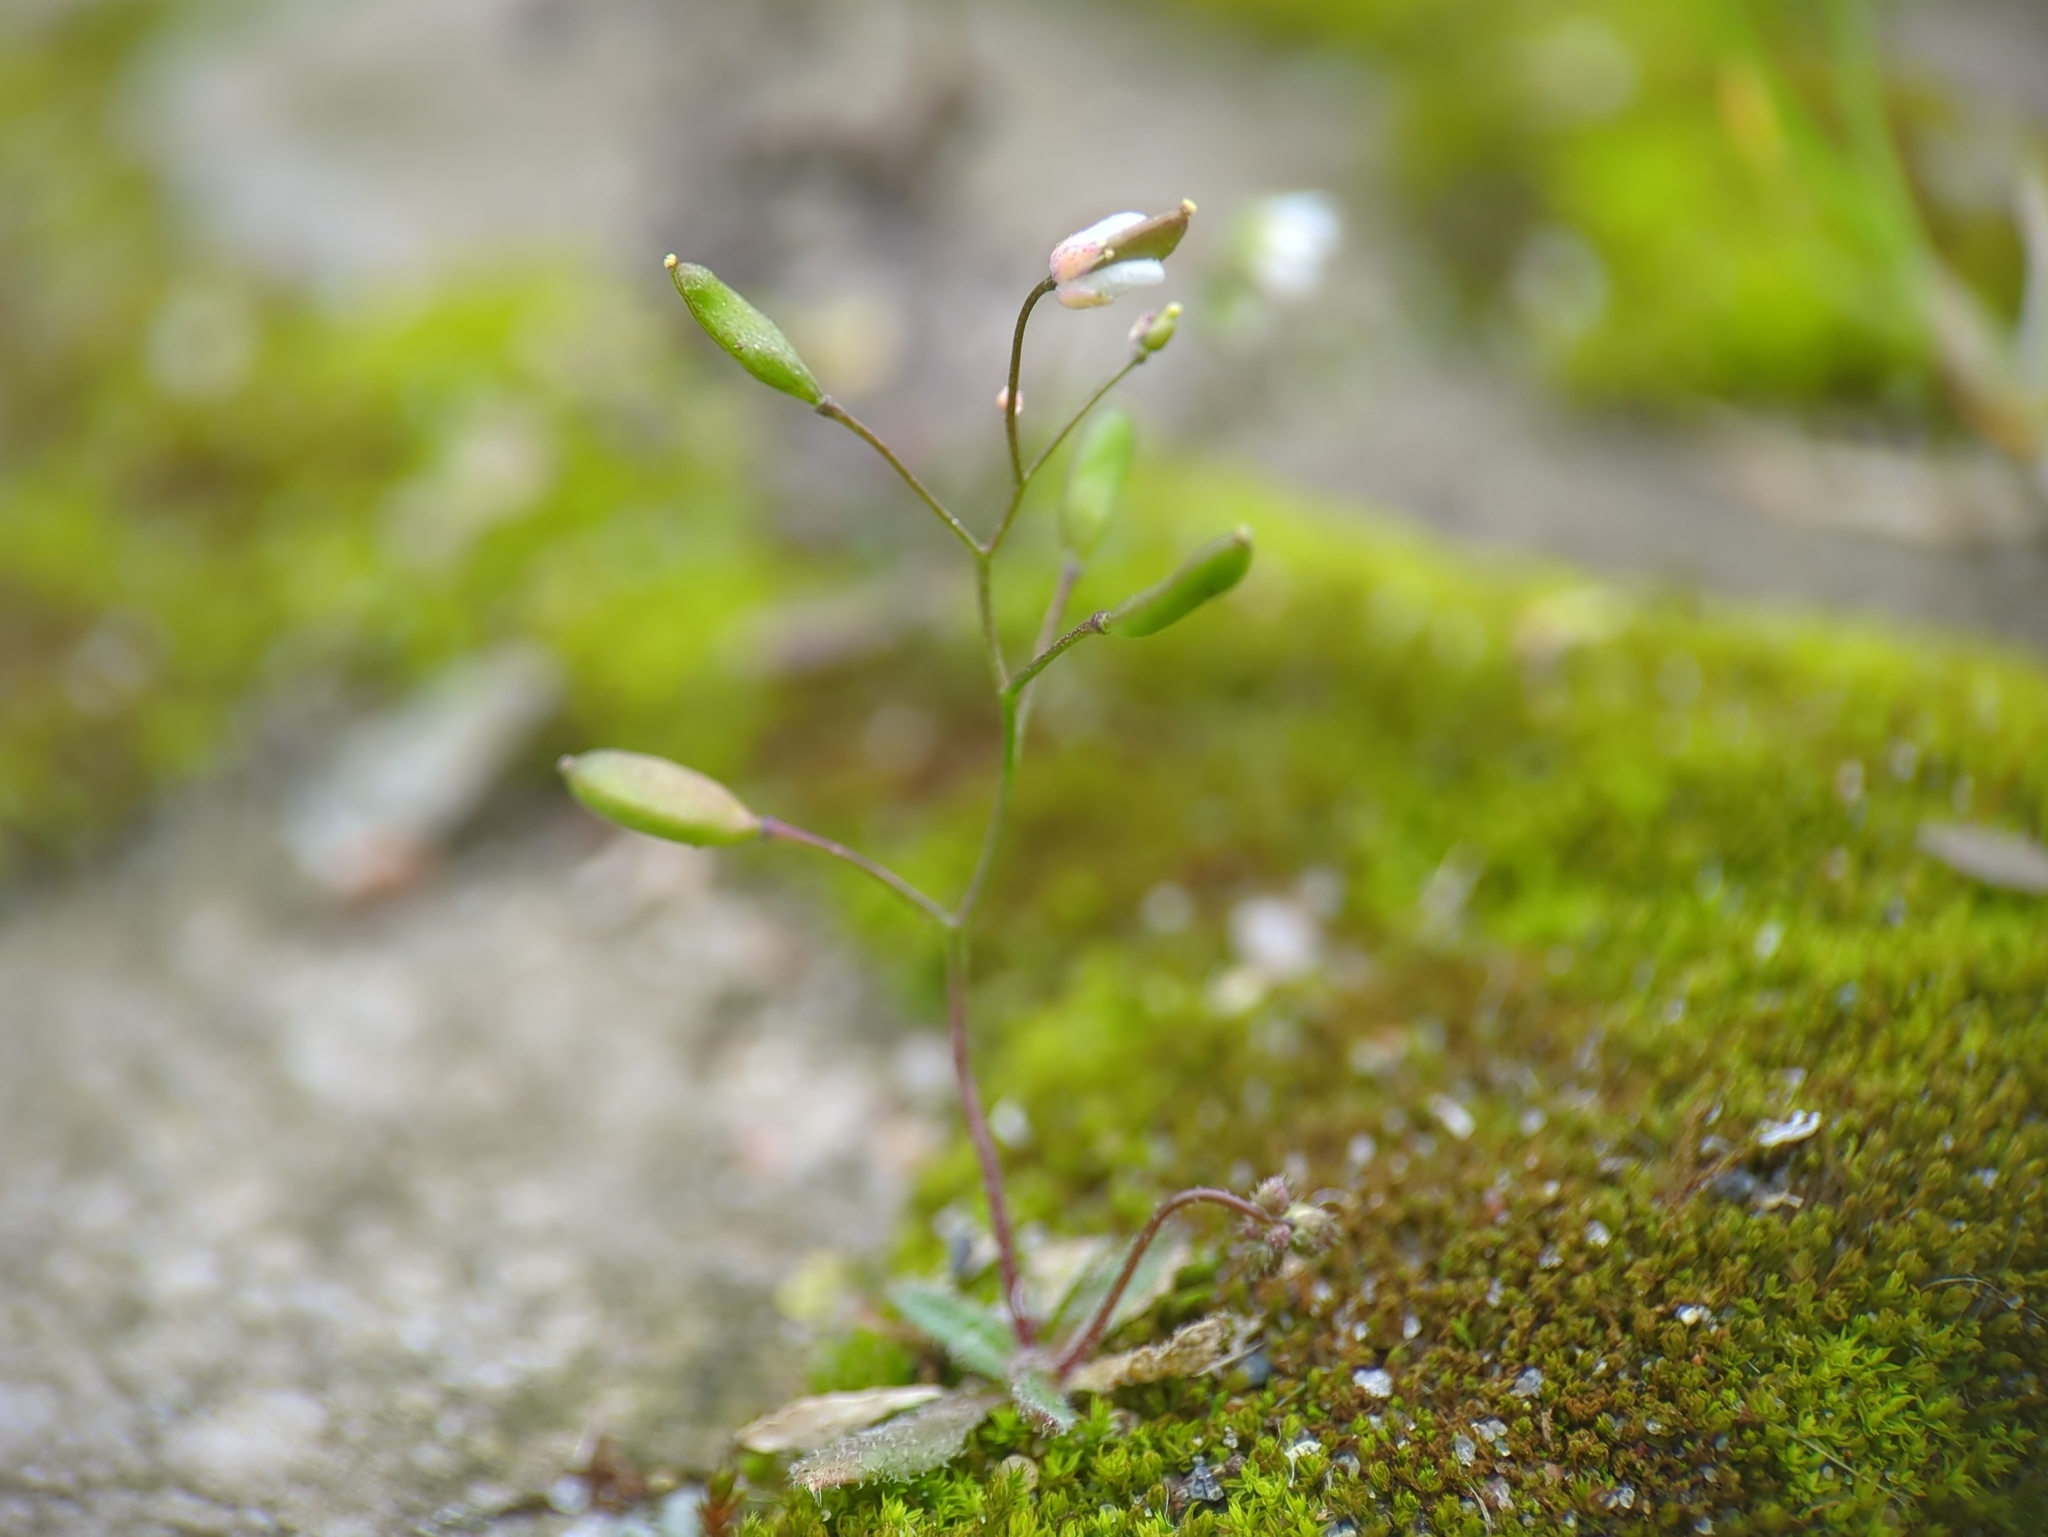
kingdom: Plantae
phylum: Tracheophyta
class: Magnoliopsida
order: Brassicales
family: Brassicaceae
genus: Draba
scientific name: Draba verna
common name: Spring draba
